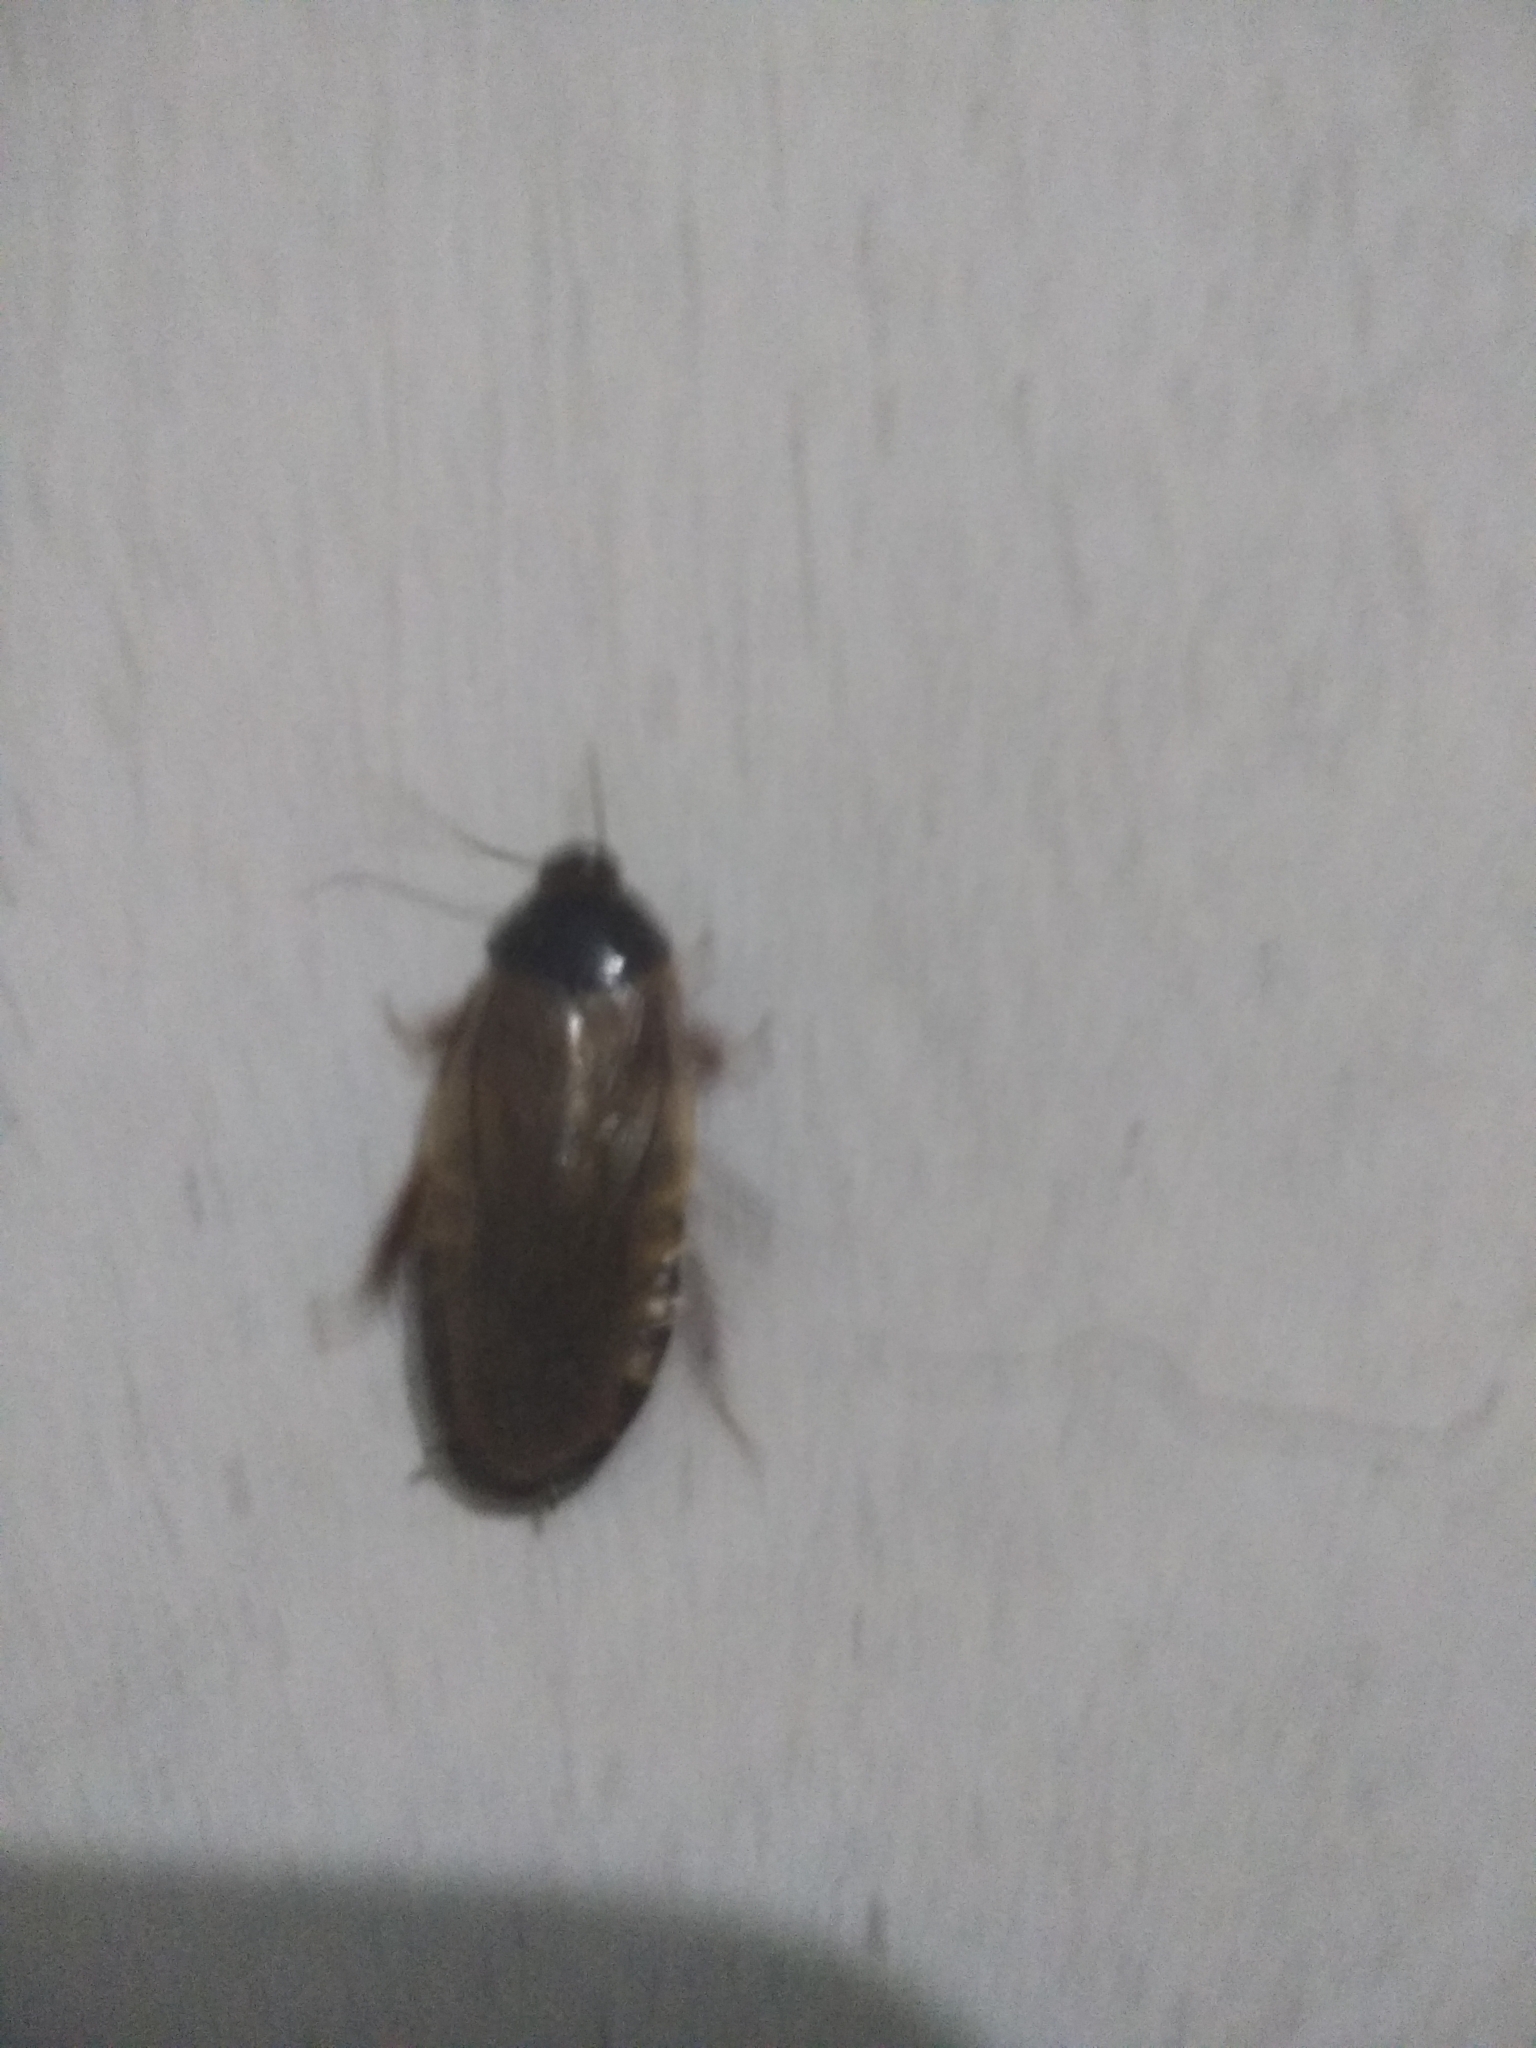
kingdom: Animalia
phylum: Arthropoda
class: Insecta
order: Blattodea
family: Blaberidae
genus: Pycnoscelus
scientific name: Pycnoscelus surinamensis
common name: Surinam cockroach
